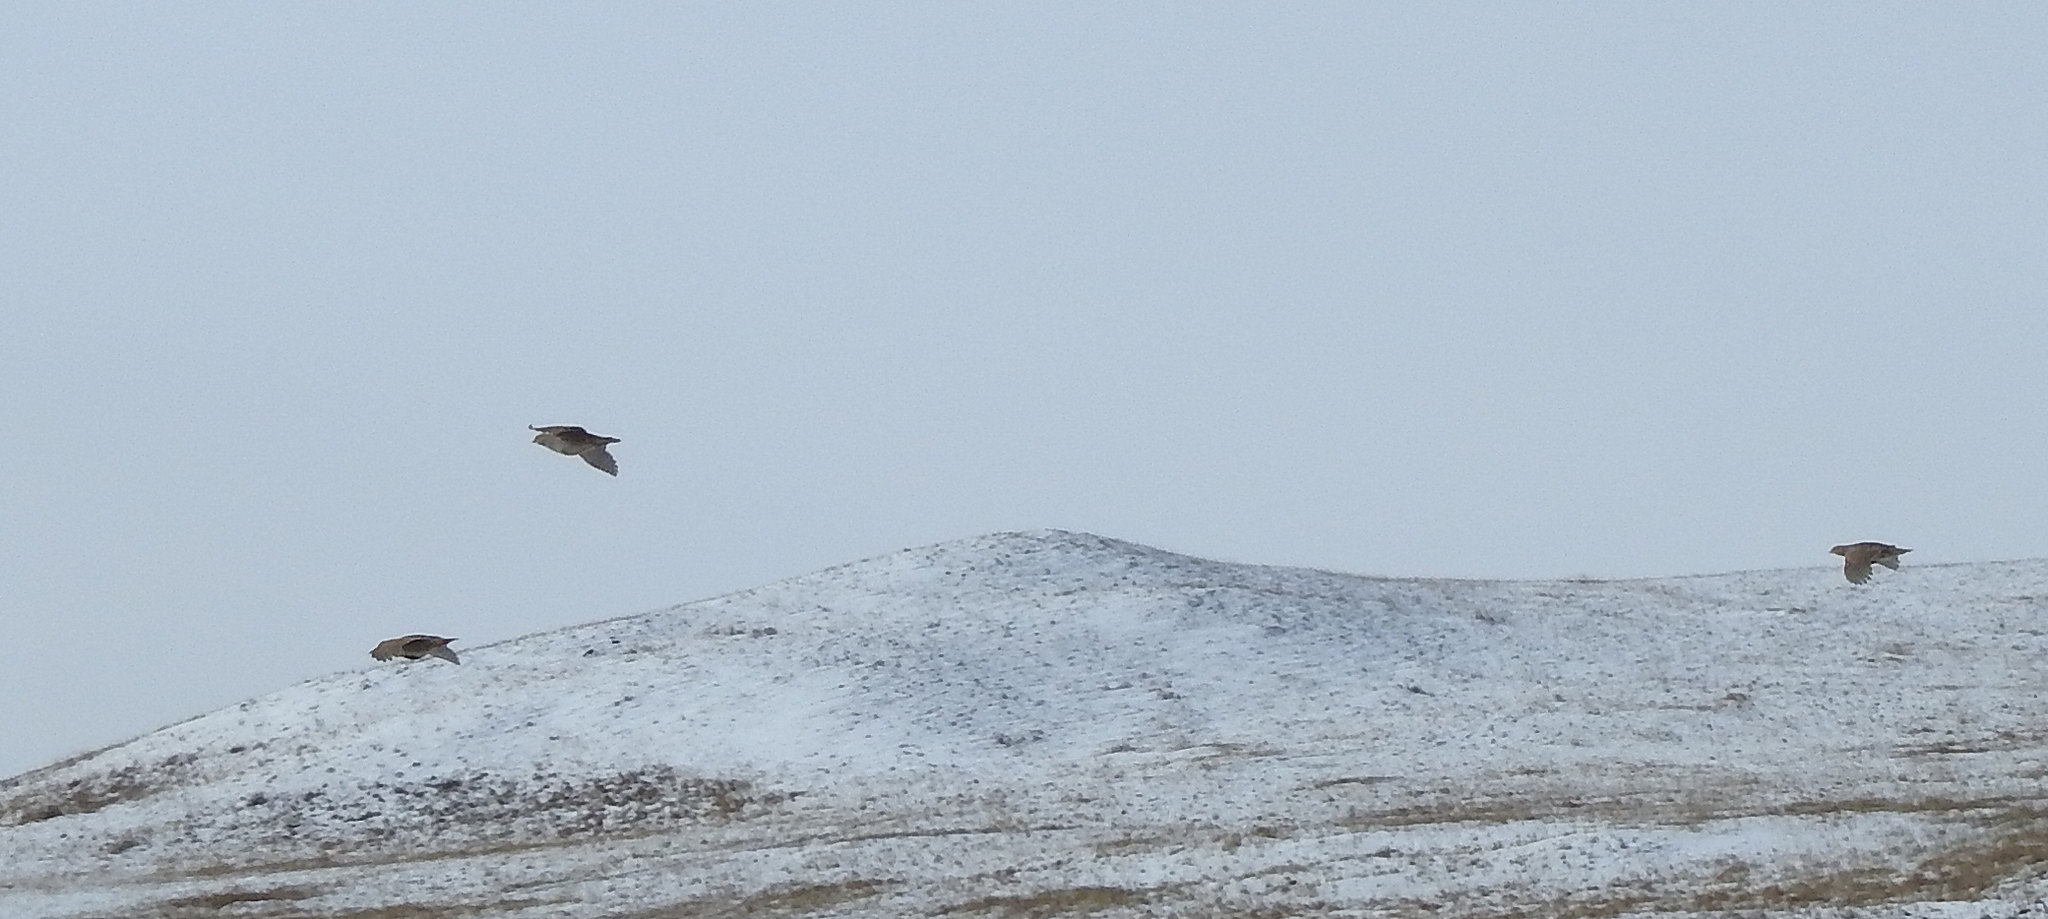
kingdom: Animalia
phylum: Chordata
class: Aves
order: Galliformes
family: Phasianidae
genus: Perdix
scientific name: Perdix dauurica
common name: Daurian partridge
